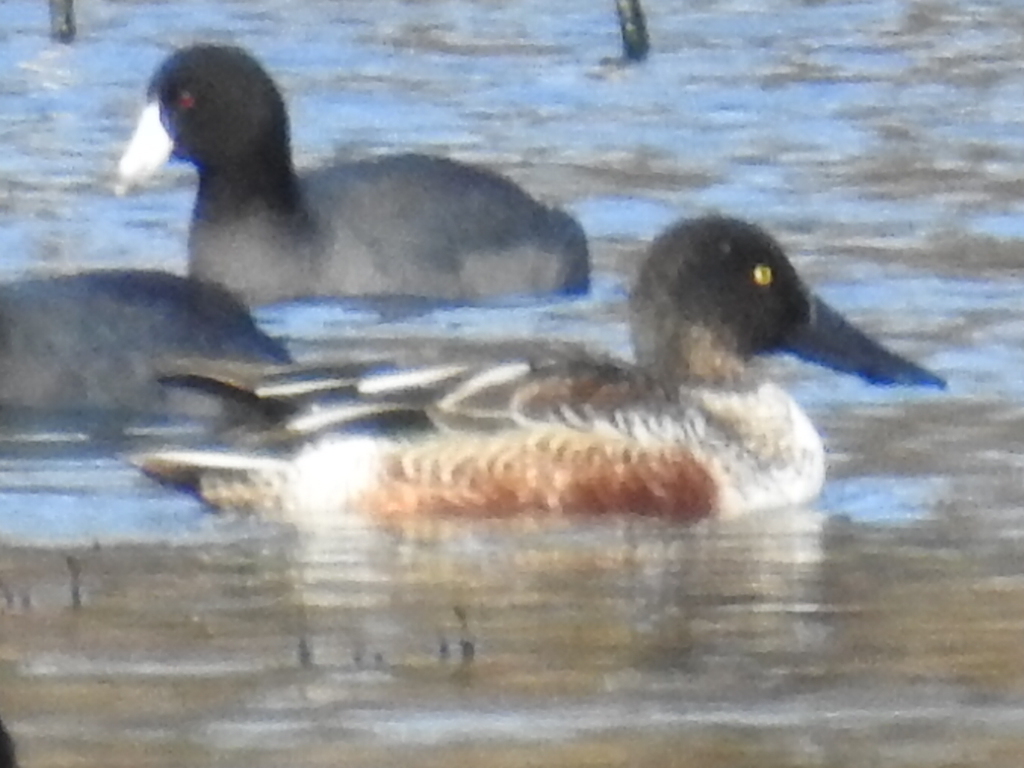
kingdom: Animalia
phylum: Chordata
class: Aves
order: Anseriformes
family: Anatidae
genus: Spatula
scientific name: Spatula clypeata
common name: Northern shoveler
